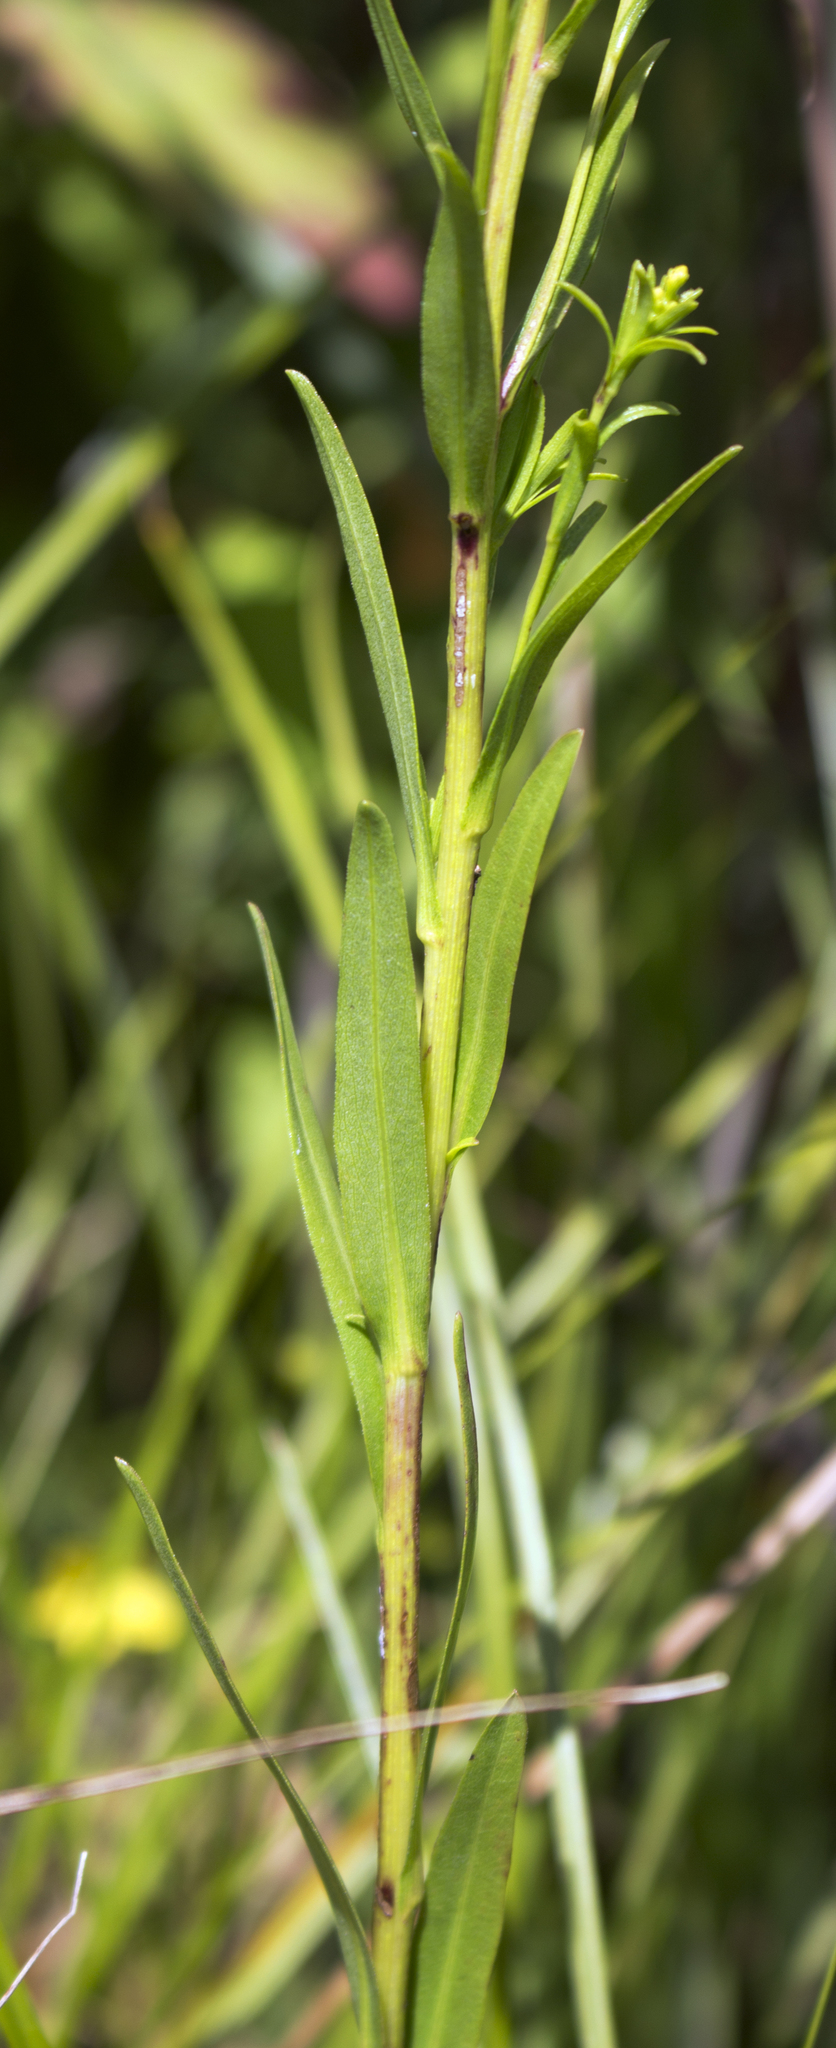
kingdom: Plantae
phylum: Tracheophyta
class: Magnoliopsida
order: Asterales
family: Asteraceae
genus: Solidago
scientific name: Solidago ohioensis
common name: Ohio goldenrod
